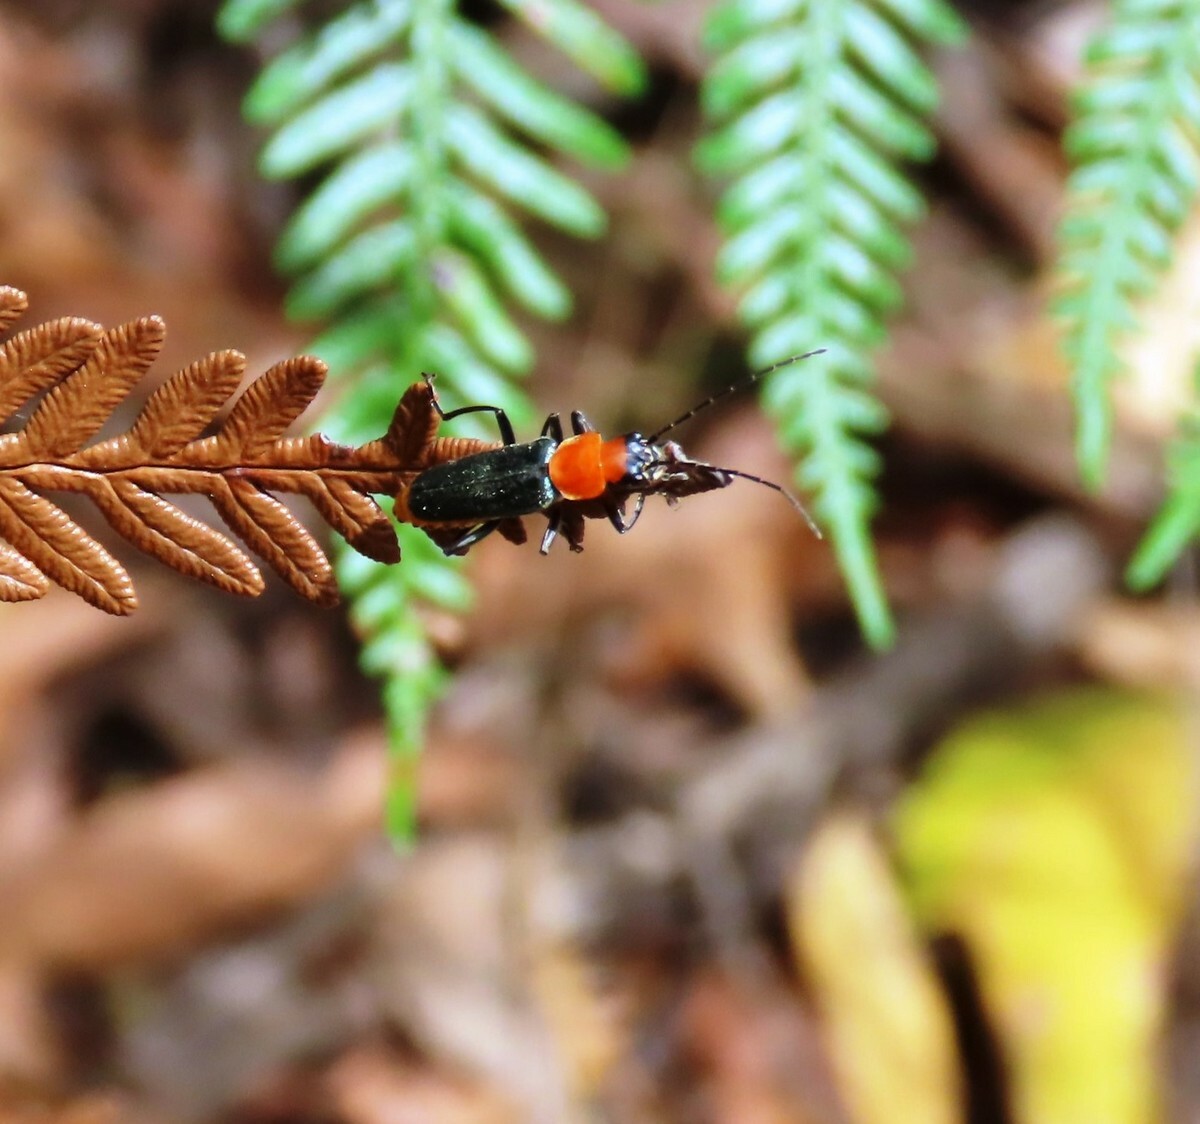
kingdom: Animalia
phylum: Arthropoda
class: Insecta
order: Coleoptera
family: Cantharidae
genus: Chauliognathus
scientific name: Chauliognathus
